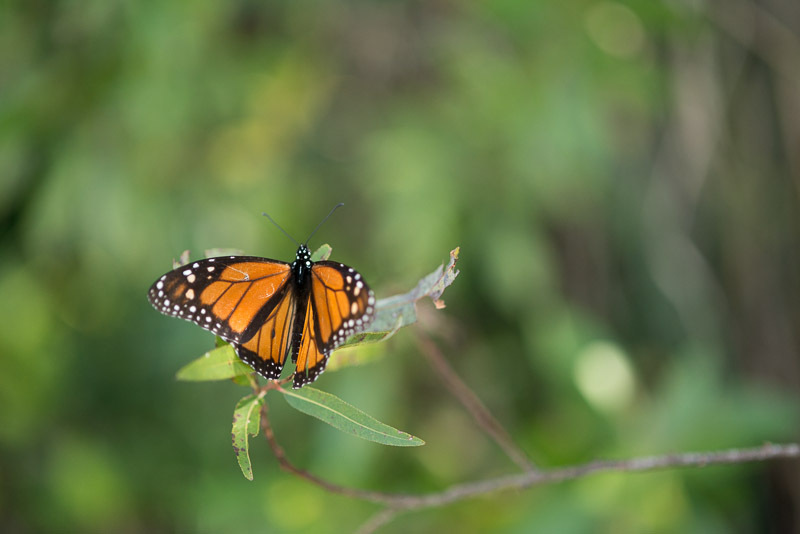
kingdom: Animalia
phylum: Arthropoda
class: Insecta
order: Lepidoptera
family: Nymphalidae
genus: Danaus
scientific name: Danaus plexippus
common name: Monarch
